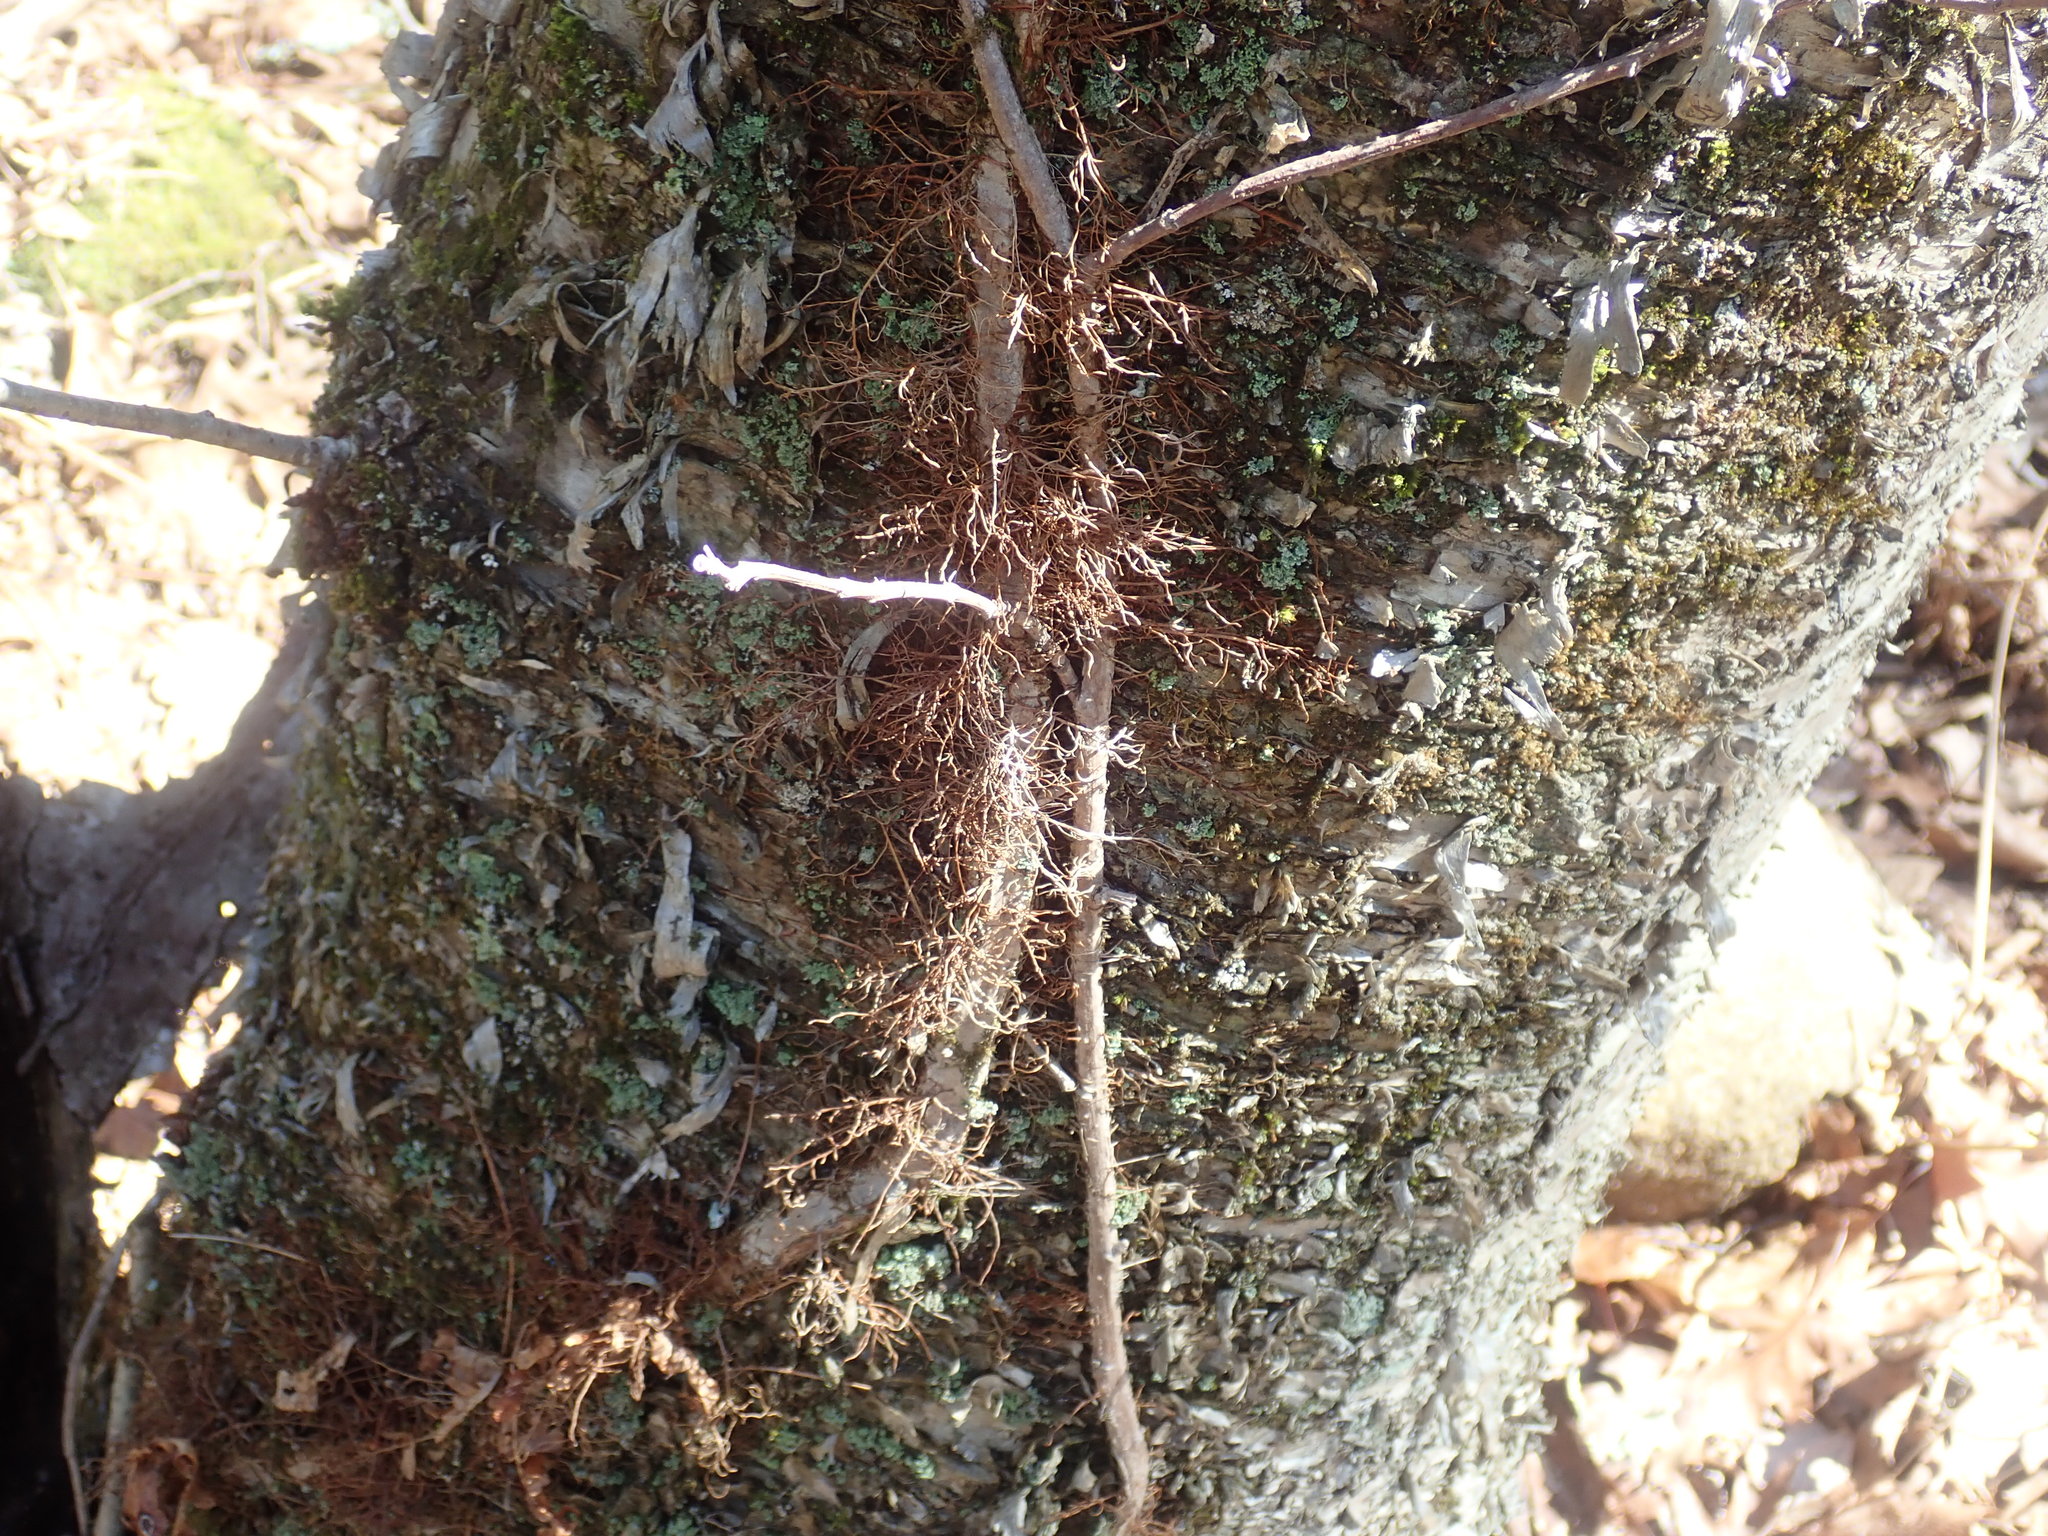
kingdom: Plantae
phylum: Tracheophyta
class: Magnoliopsida
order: Sapindales
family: Anacardiaceae
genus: Toxicodendron
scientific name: Toxicodendron radicans
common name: Poison ivy
